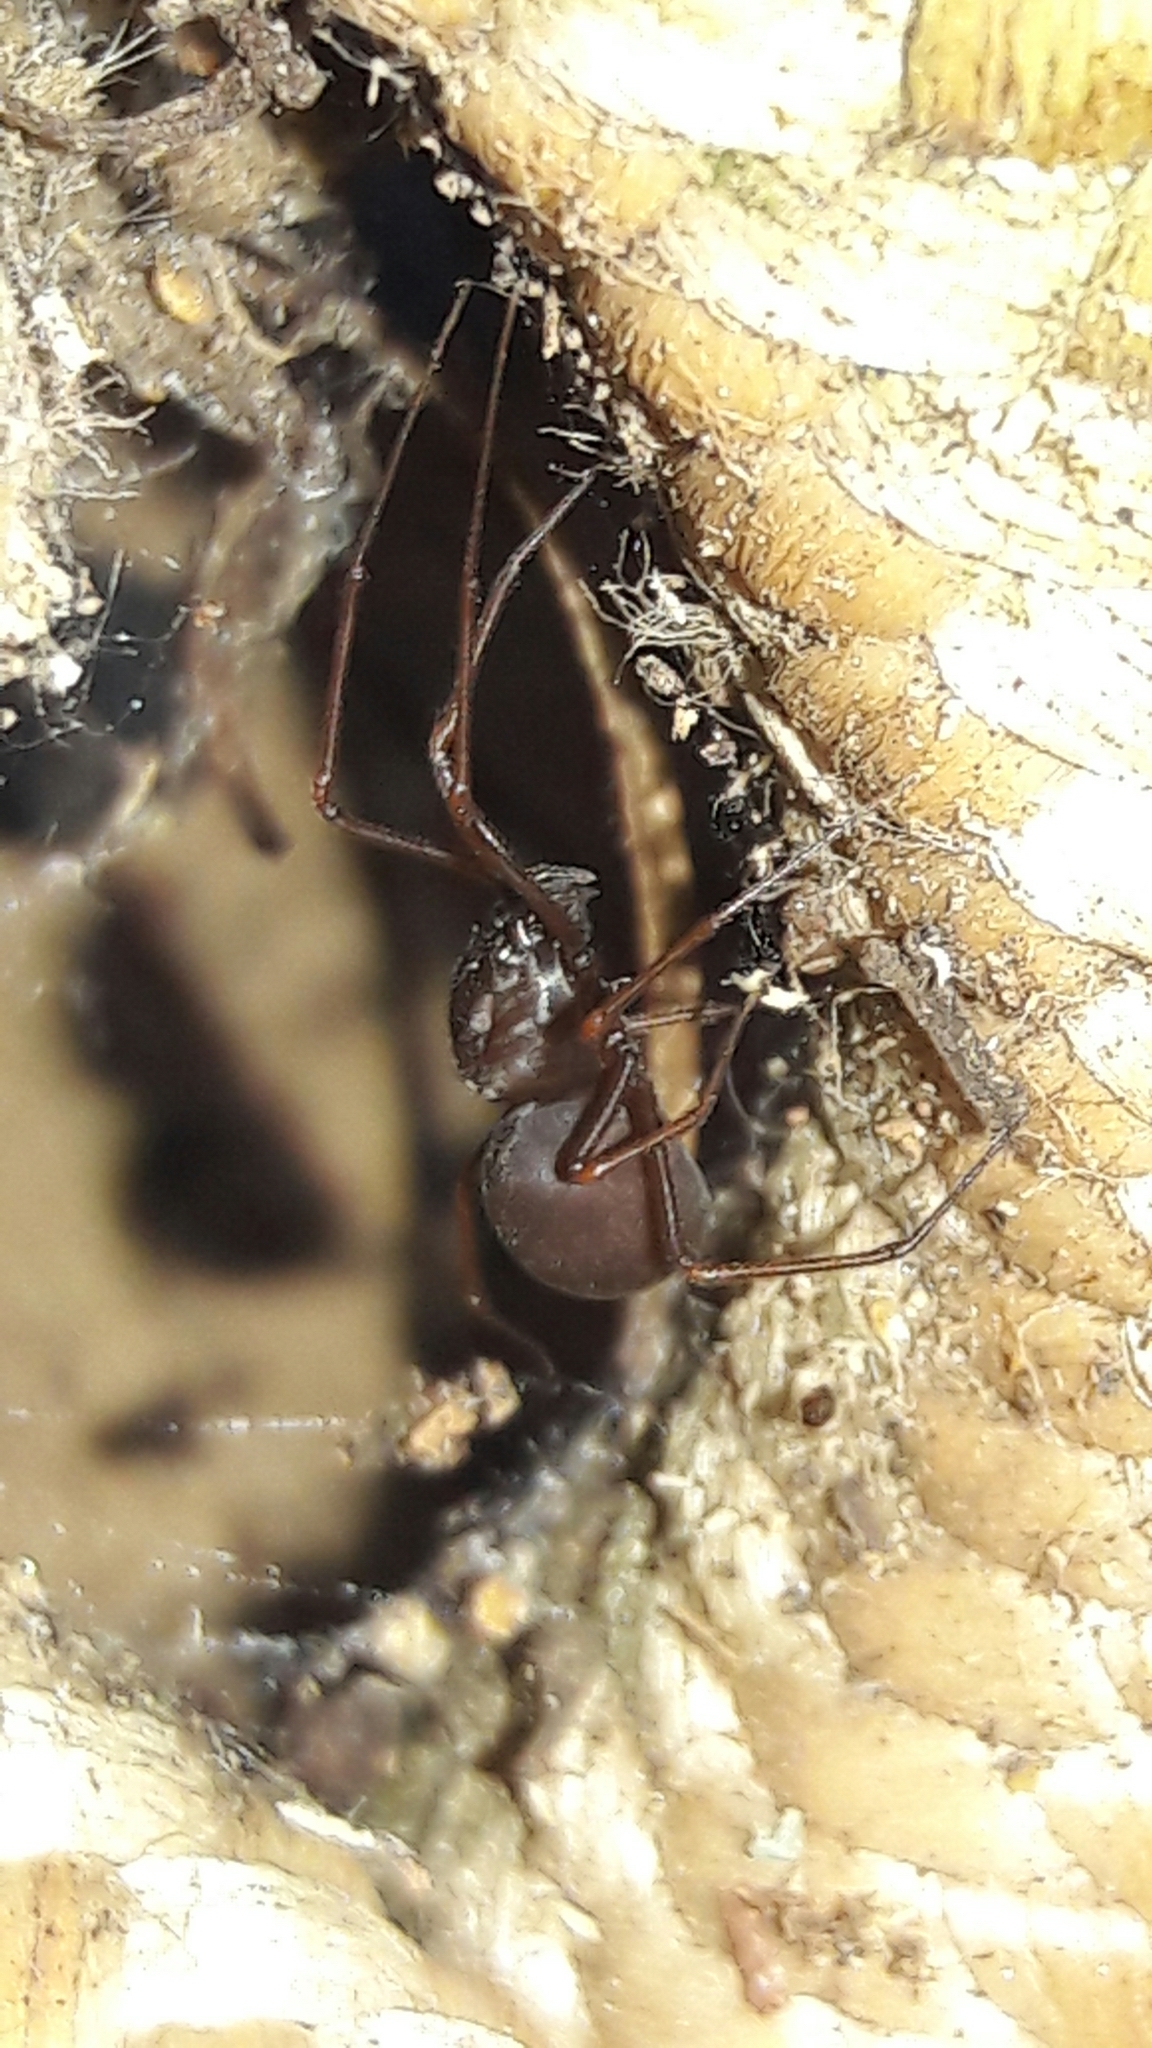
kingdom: Animalia
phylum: Arthropoda
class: Arachnida
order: Araneae
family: Scytodidae
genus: Scytodes
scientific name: Scytodes fusca
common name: Spitting spiders
